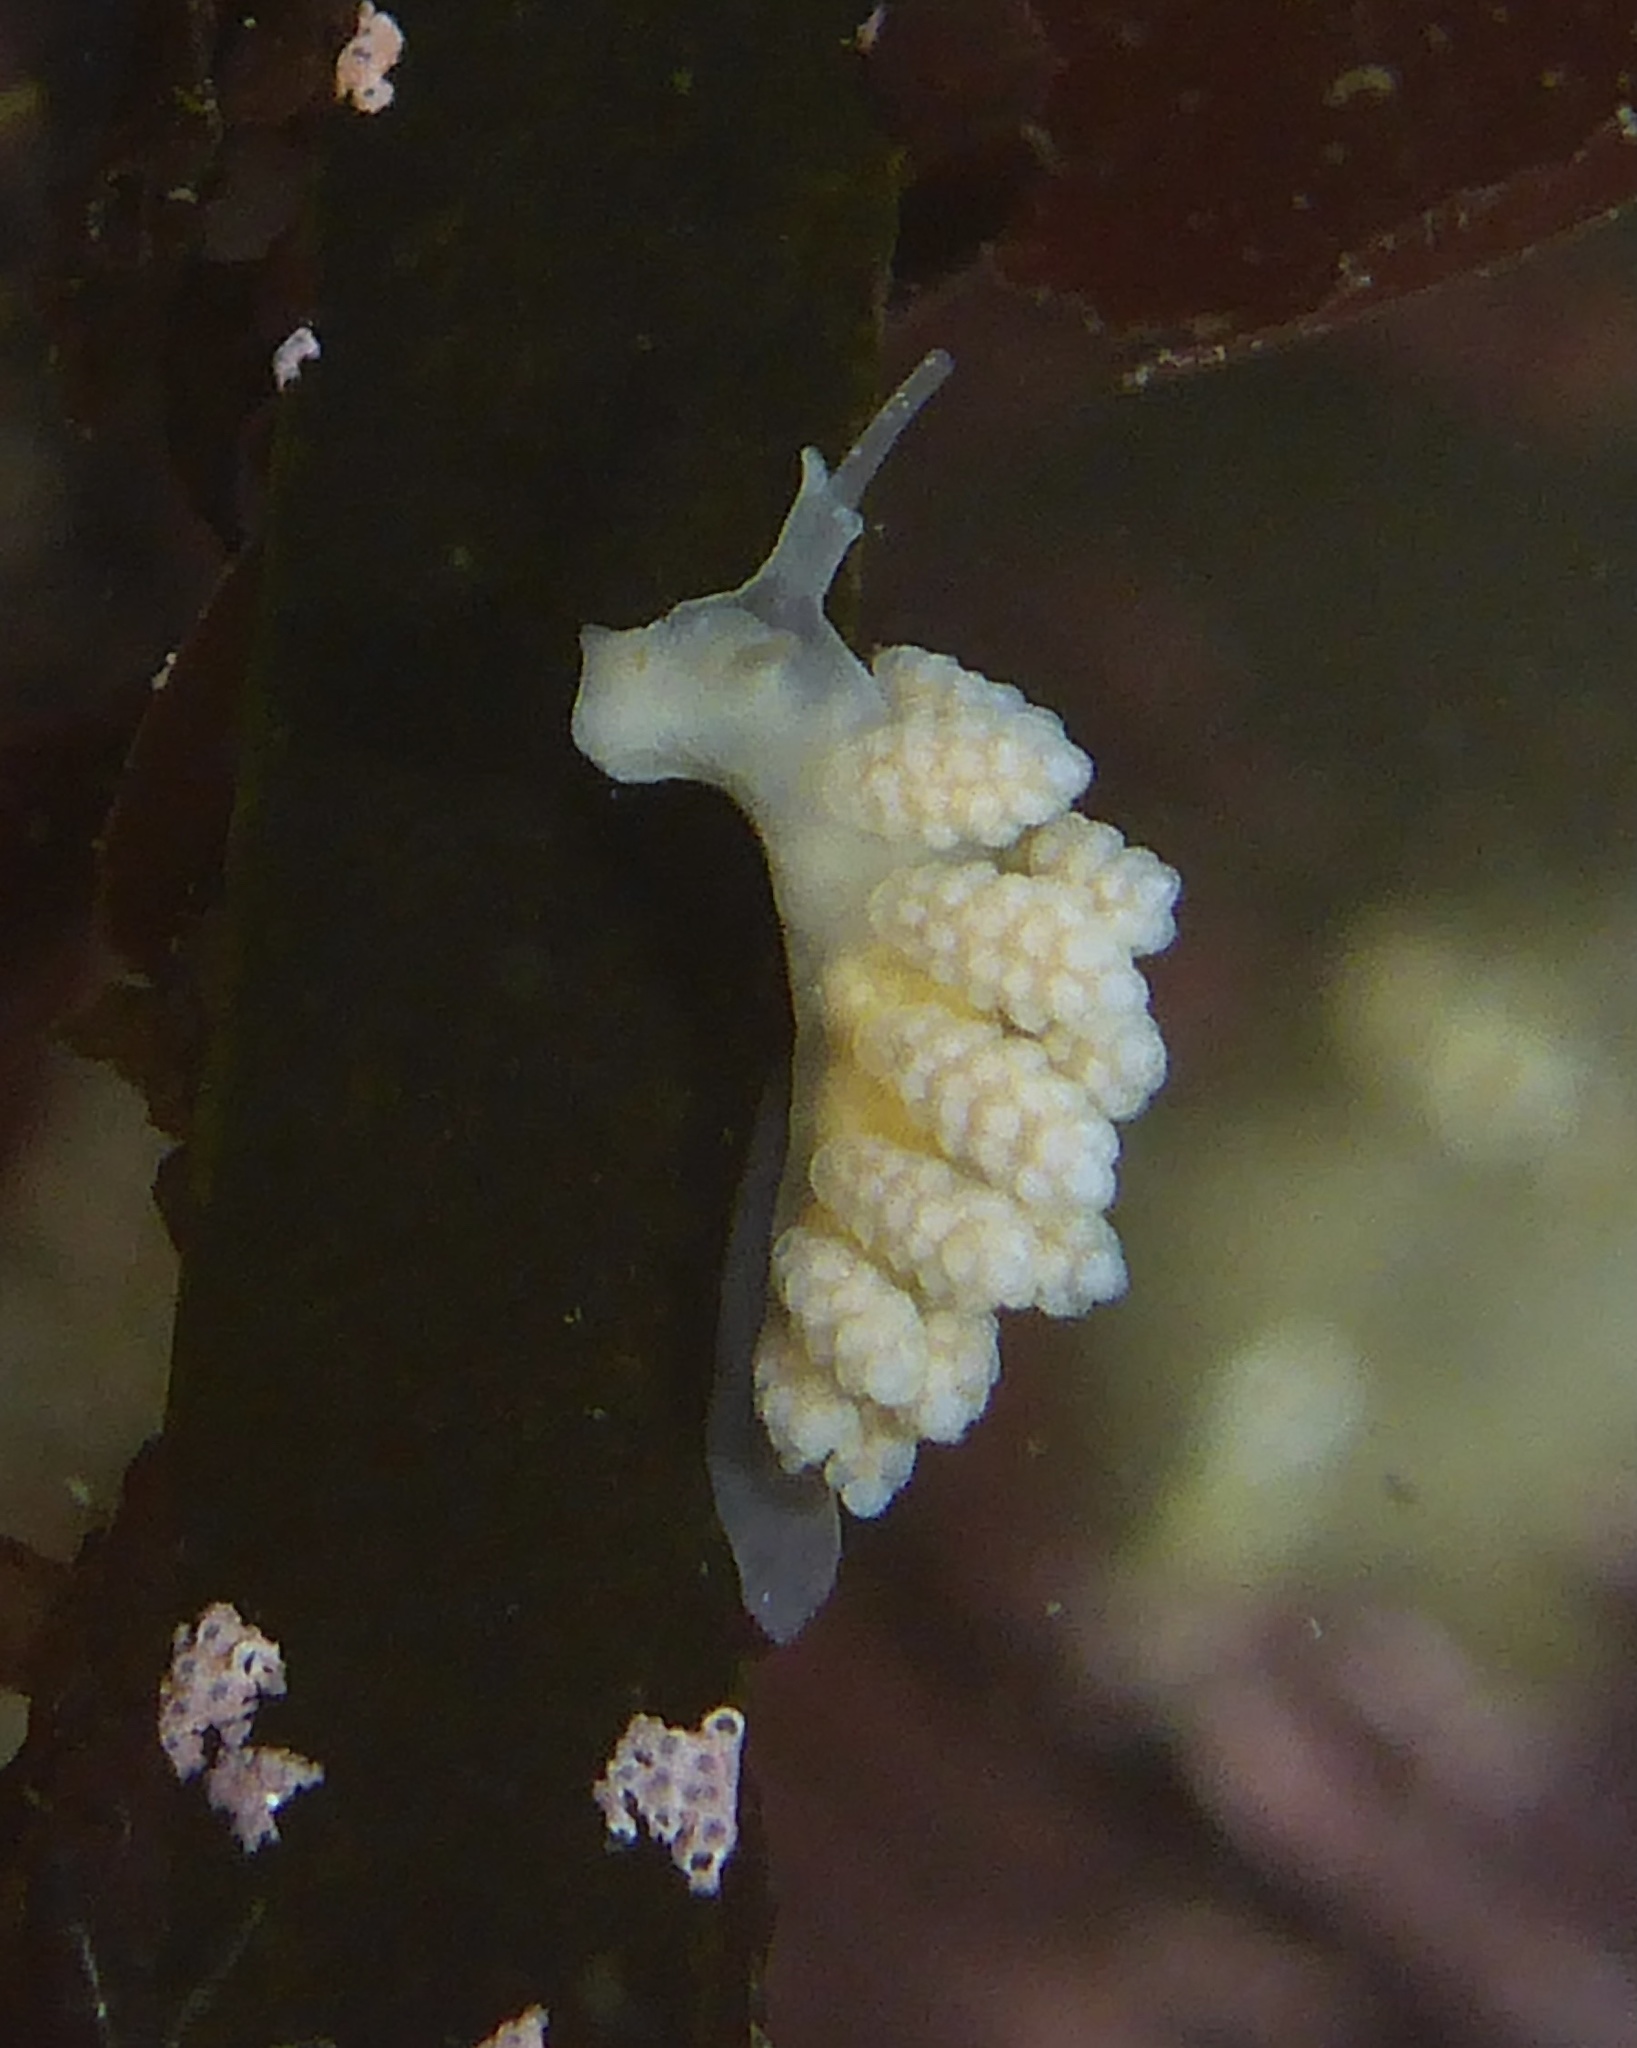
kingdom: Animalia
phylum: Mollusca
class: Gastropoda
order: Nudibranchia
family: Dotidae
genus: Doto
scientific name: Doto amyra
